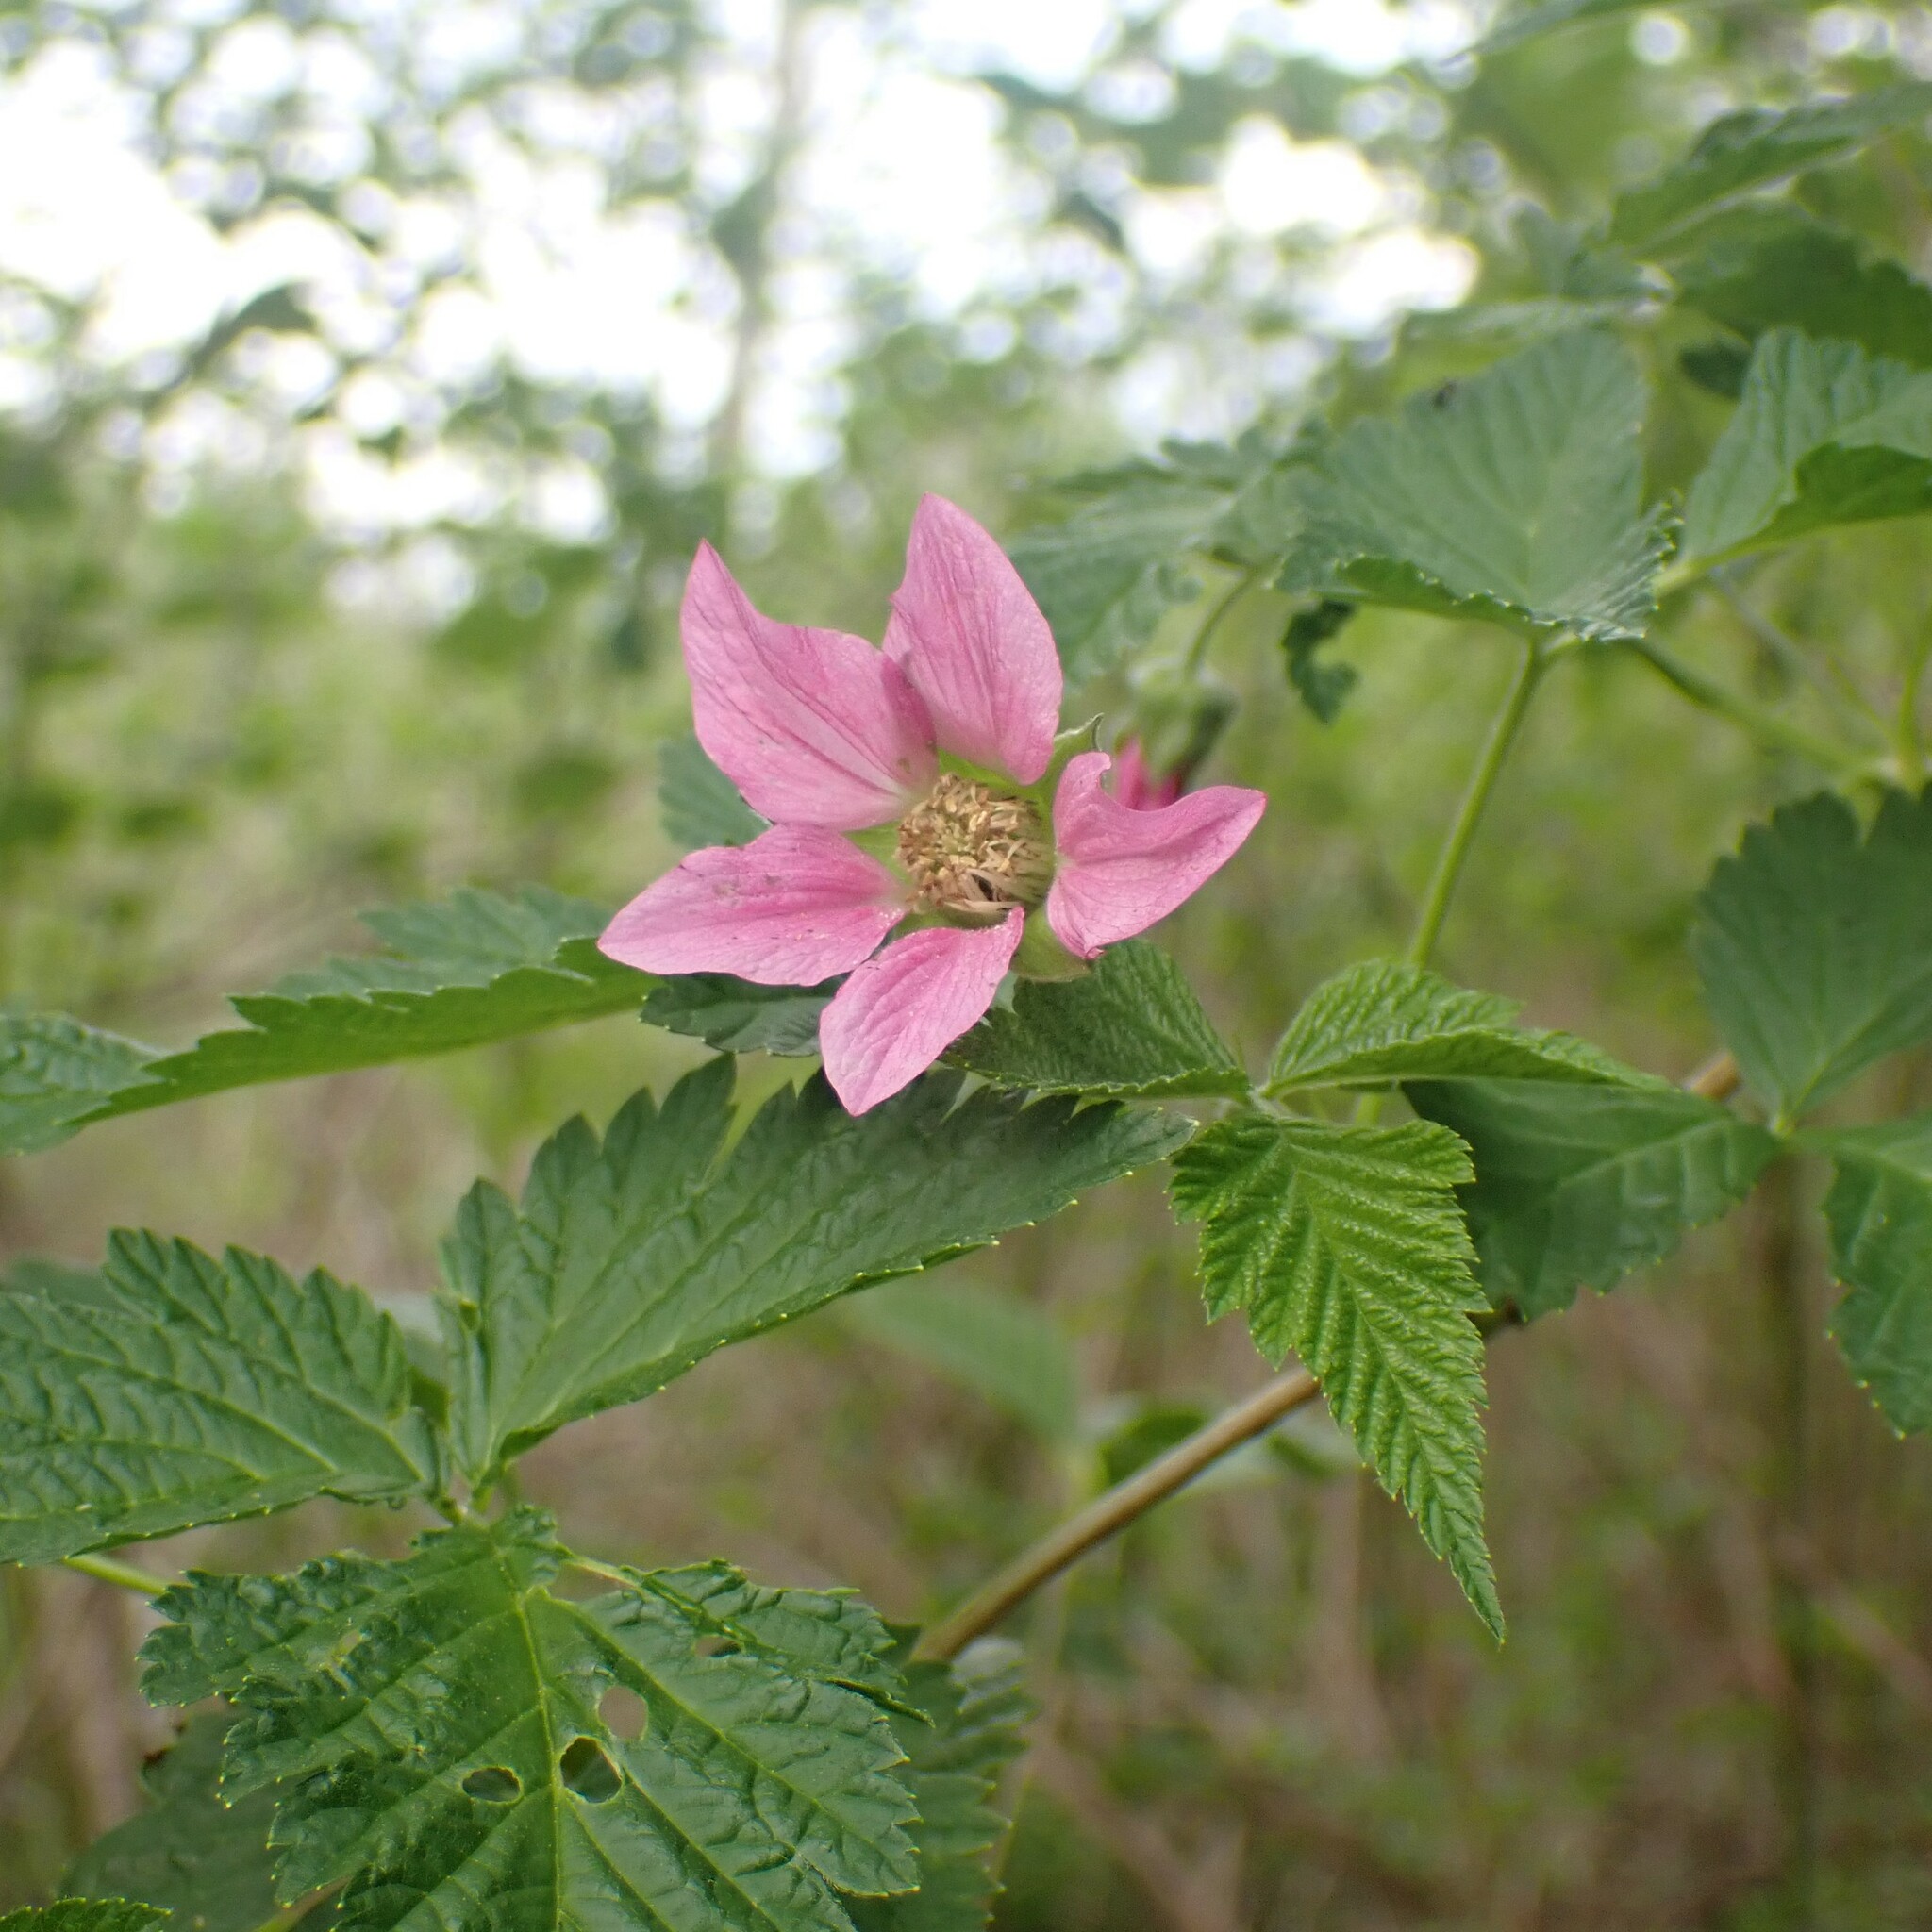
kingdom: Plantae
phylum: Tracheophyta
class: Magnoliopsida
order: Rosales
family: Rosaceae
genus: Rubus
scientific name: Rubus spectabilis
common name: Salmonberry
